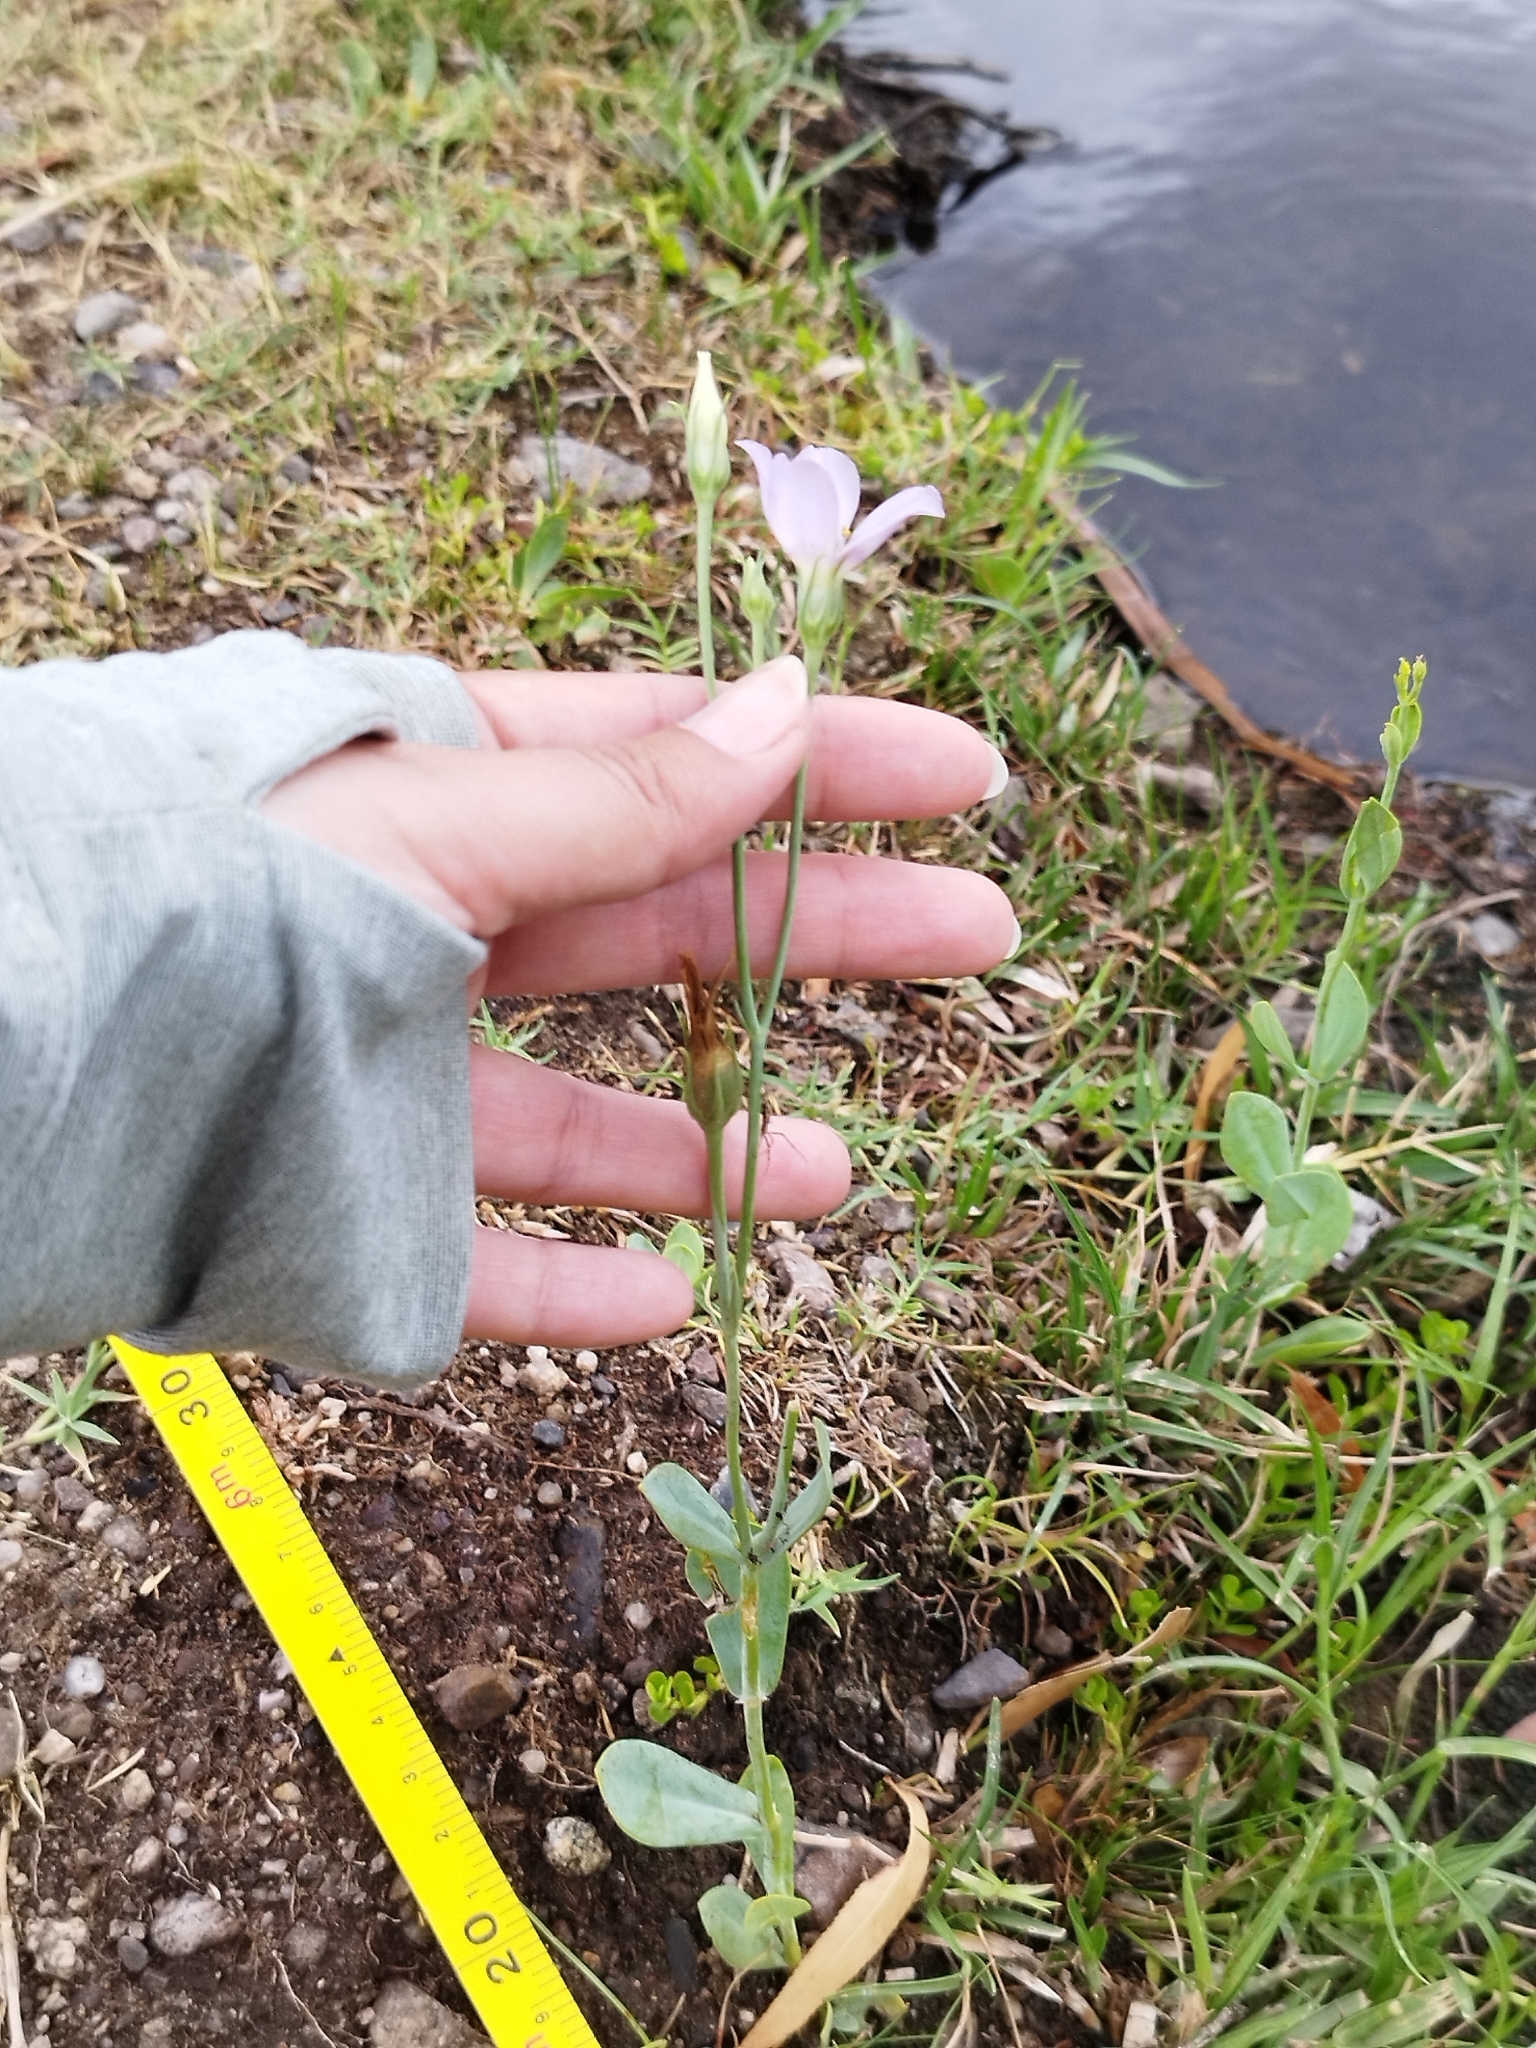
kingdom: Plantae
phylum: Tracheophyta
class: Magnoliopsida
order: Gentianales
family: Gentianaceae
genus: Eustoma
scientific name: Eustoma exaltatum
